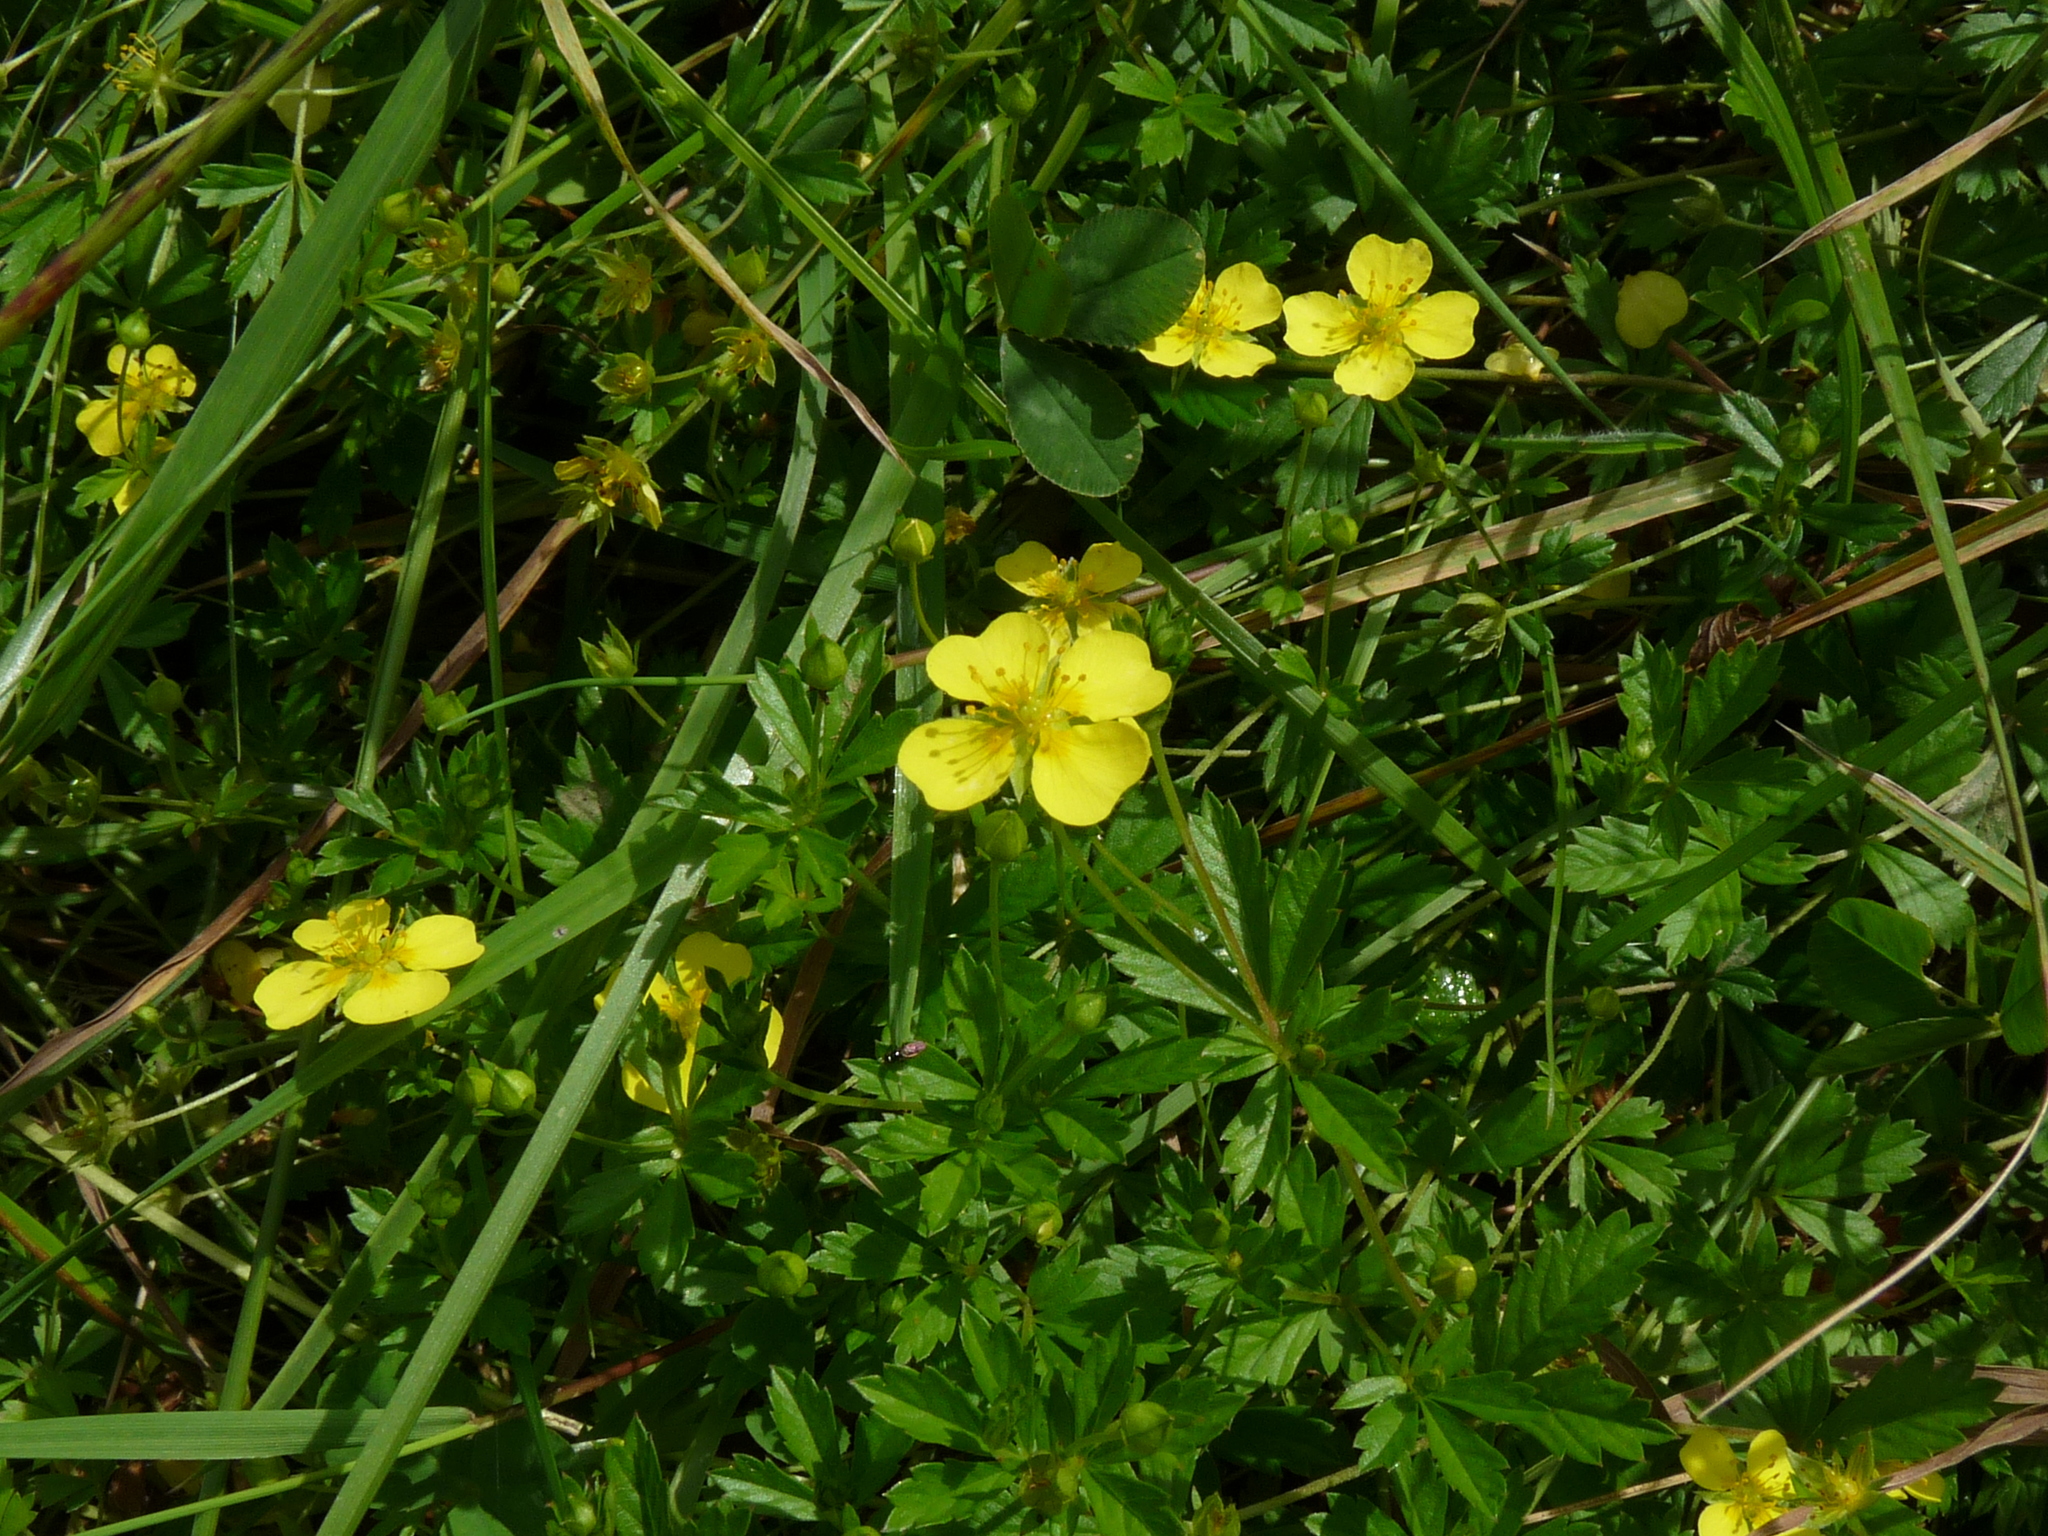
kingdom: Plantae
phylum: Tracheophyta
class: Magnoliopsida
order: Rosales
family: Rosaceae
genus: Potentilla
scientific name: Potentilla anglica
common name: Trailing tormentil
